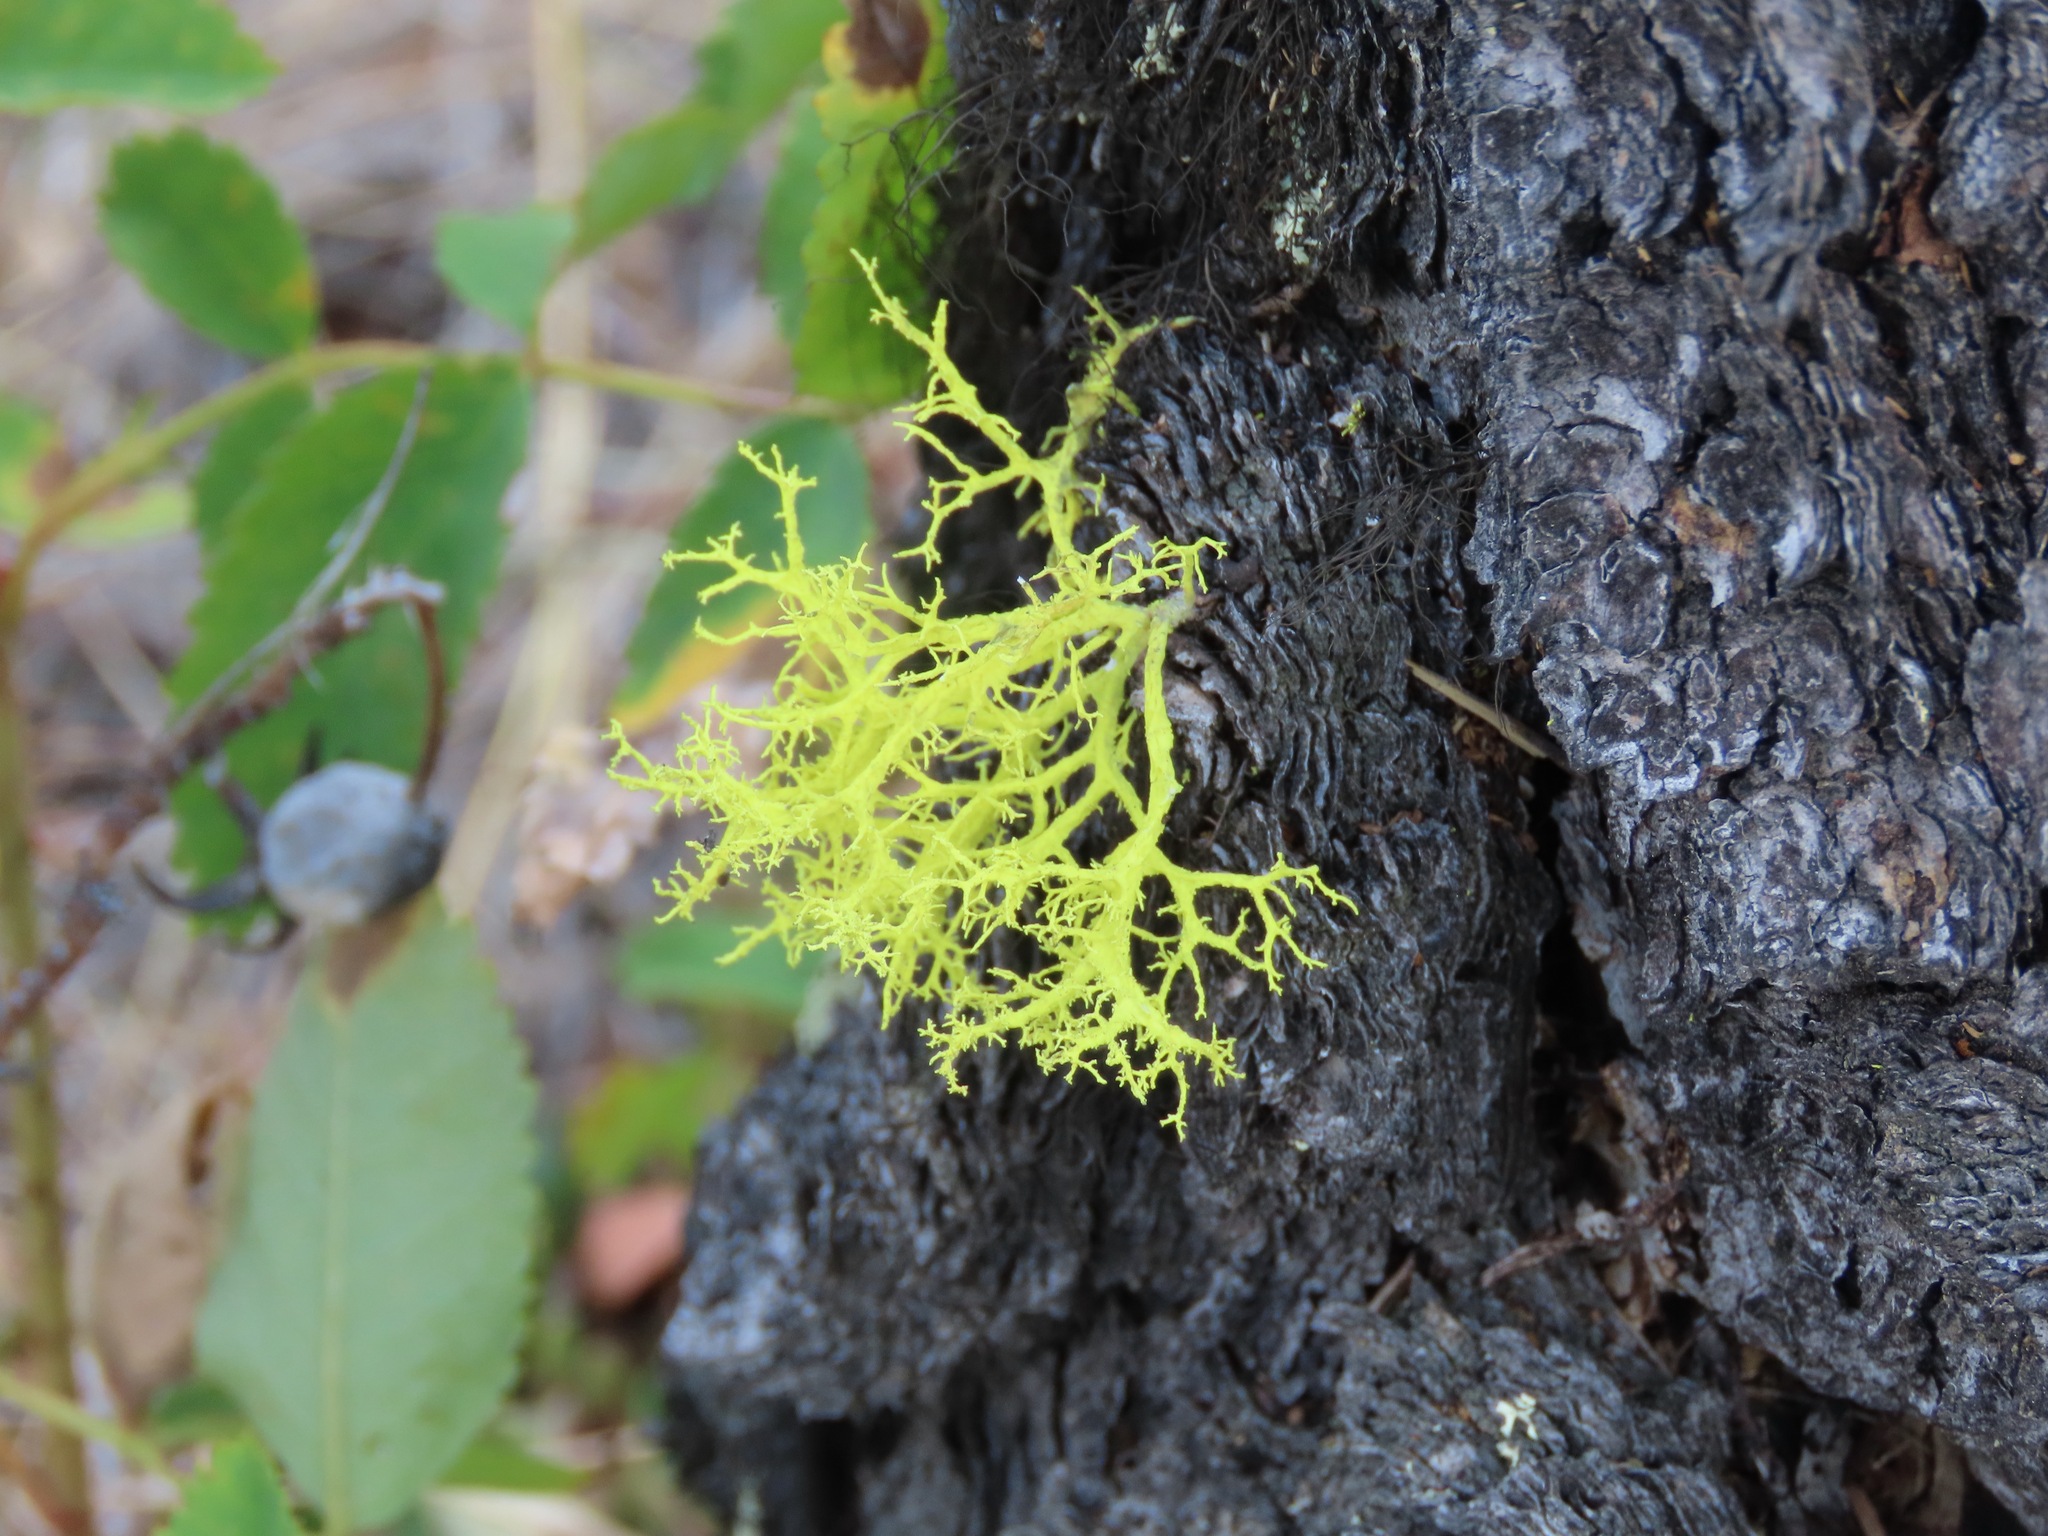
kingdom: Fungi
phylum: Ascomycota
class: Lecanoromycetes
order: Lecanorales
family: Parmeliaceae
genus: Letharia
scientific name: Letharia vulpina
